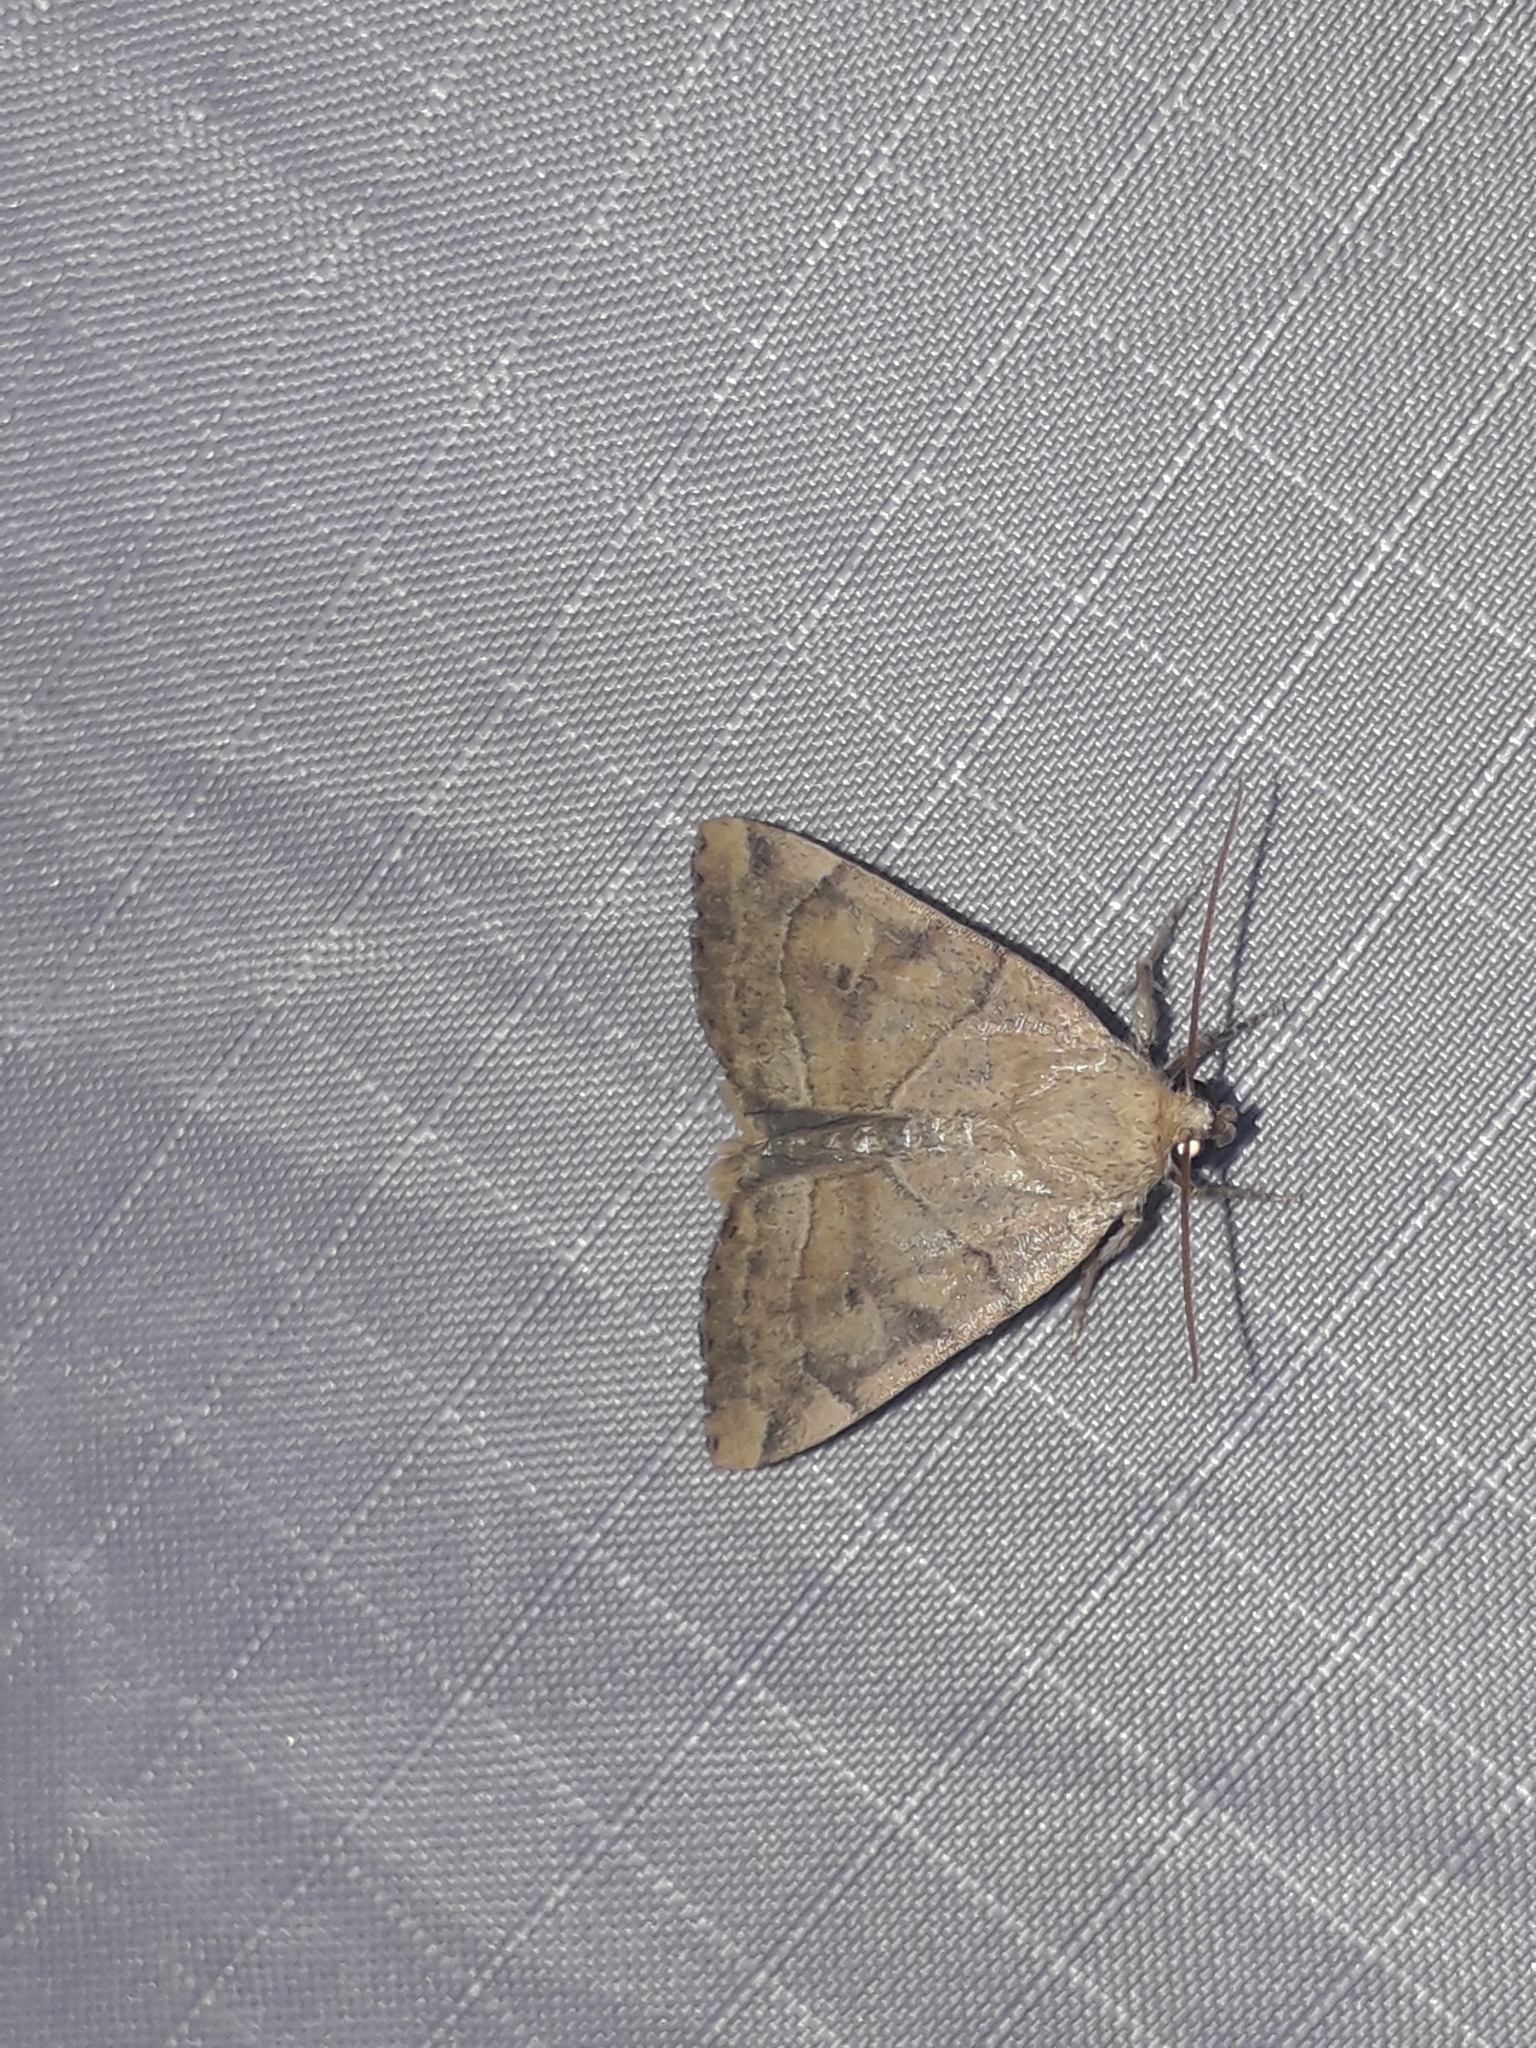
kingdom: Animalia
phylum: Arthropoda
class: Insecta
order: Lepidoptera
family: Noctuidae
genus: Cosmia
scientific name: Cosmia trapezina
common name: Dun-bar
